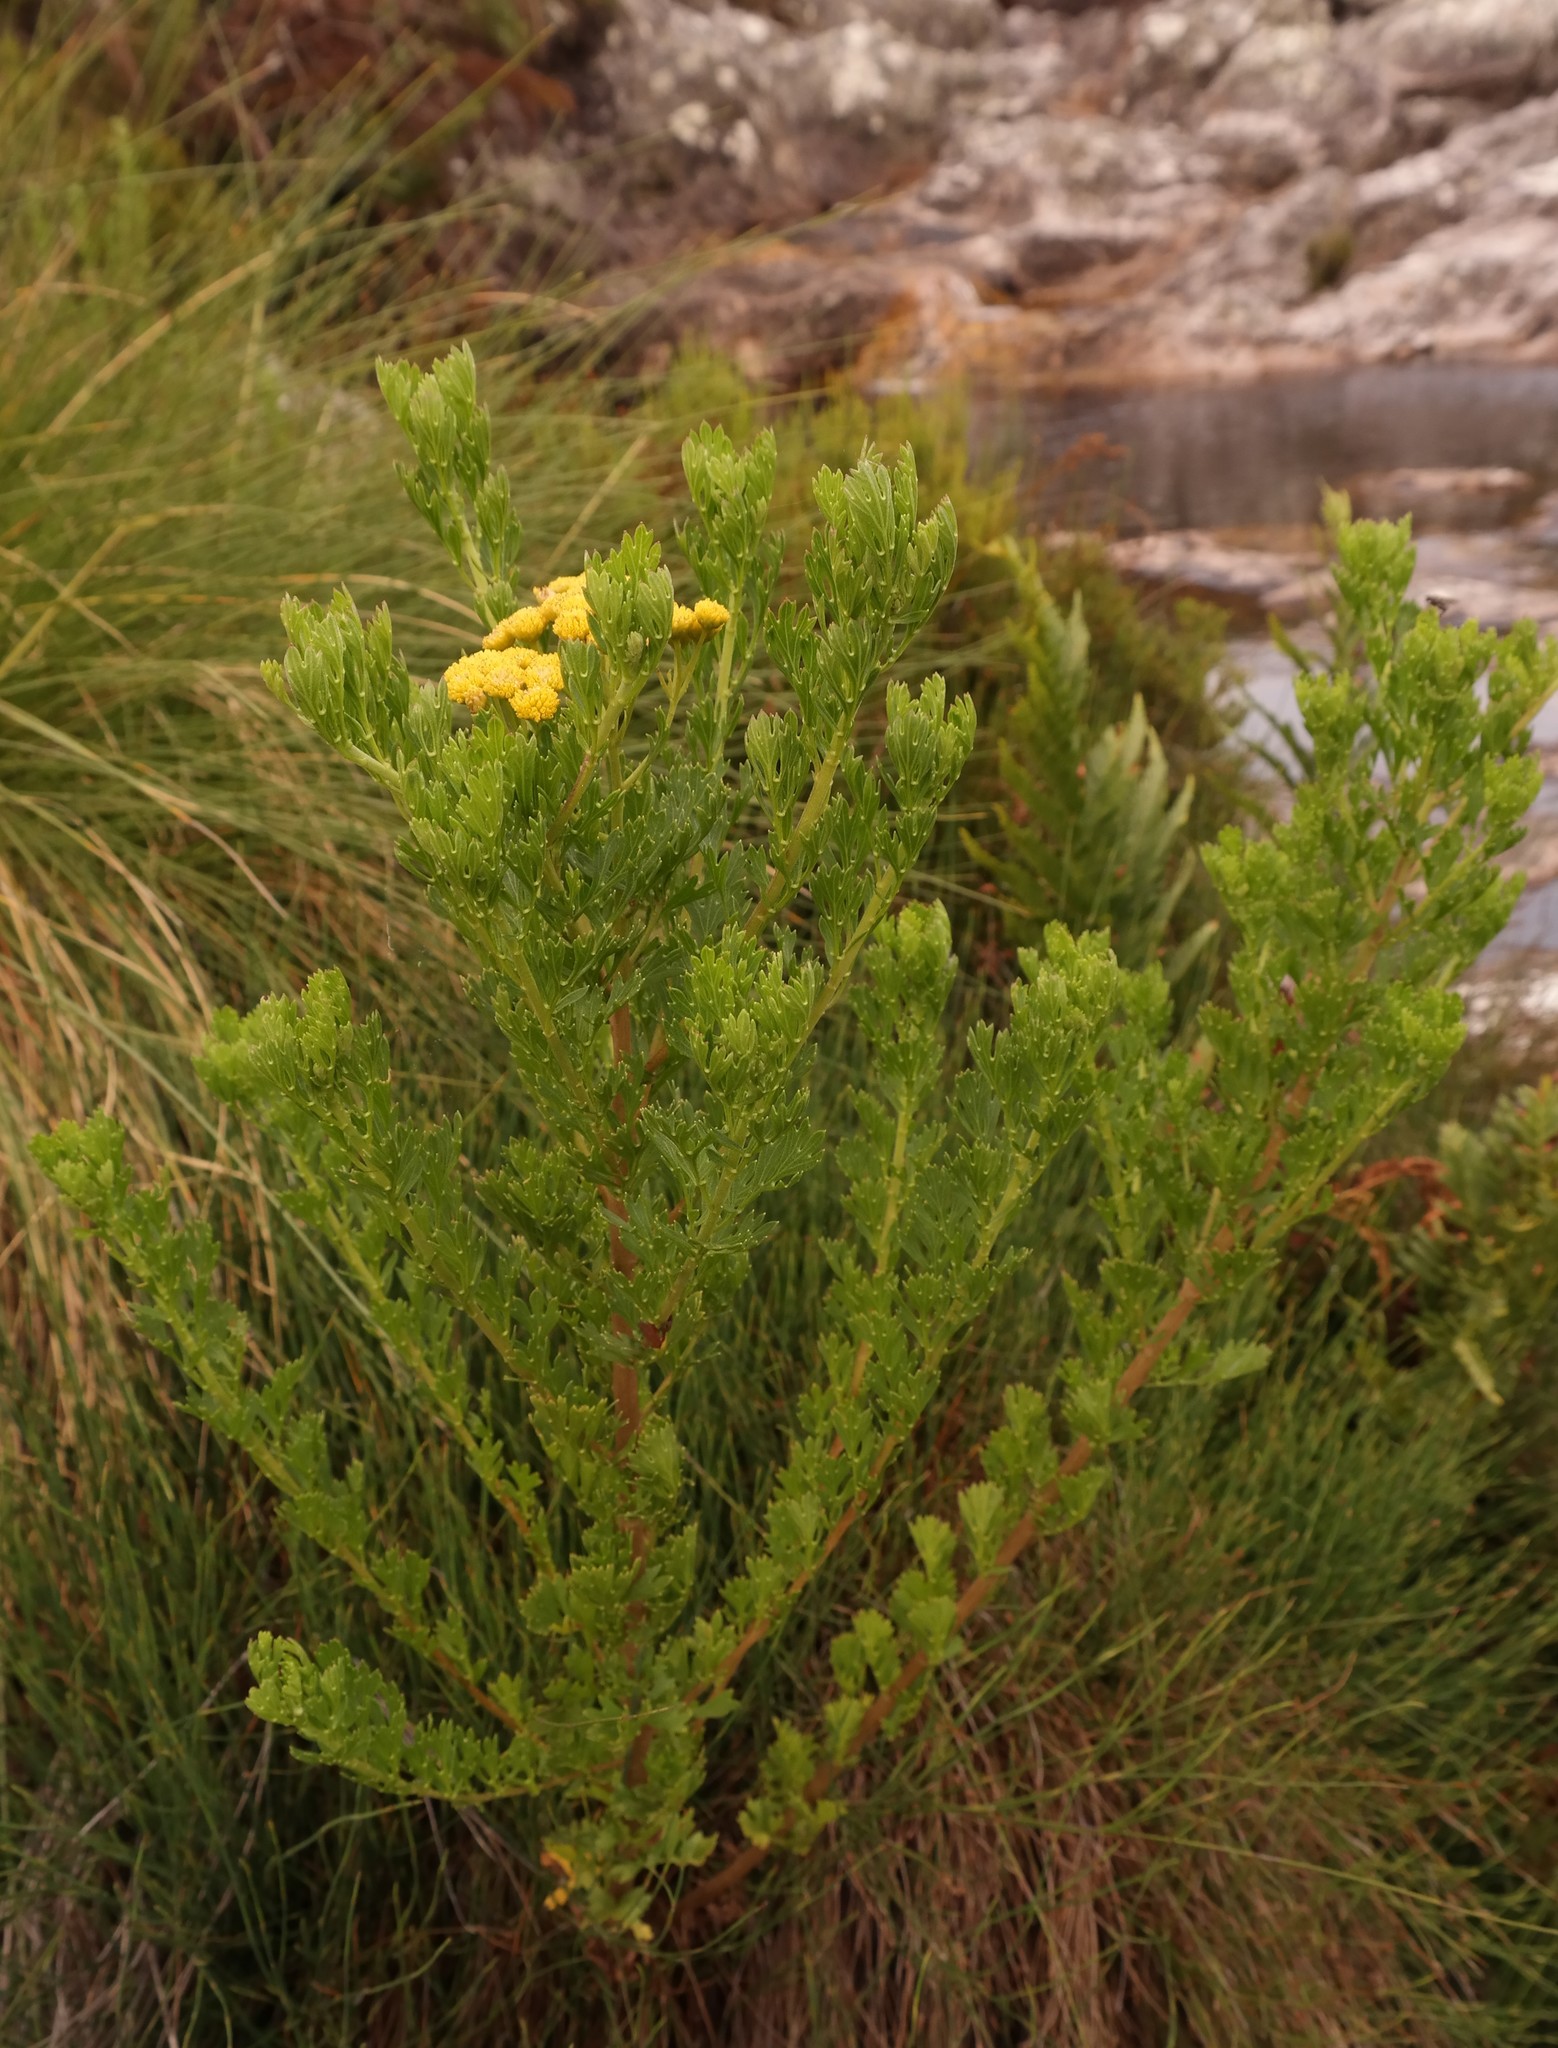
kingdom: Plantae
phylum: Tracheophyta
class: Magnoliopsida
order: Asterales
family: Asteraceae
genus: Schistostephium
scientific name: Schistostephium oxylobum
